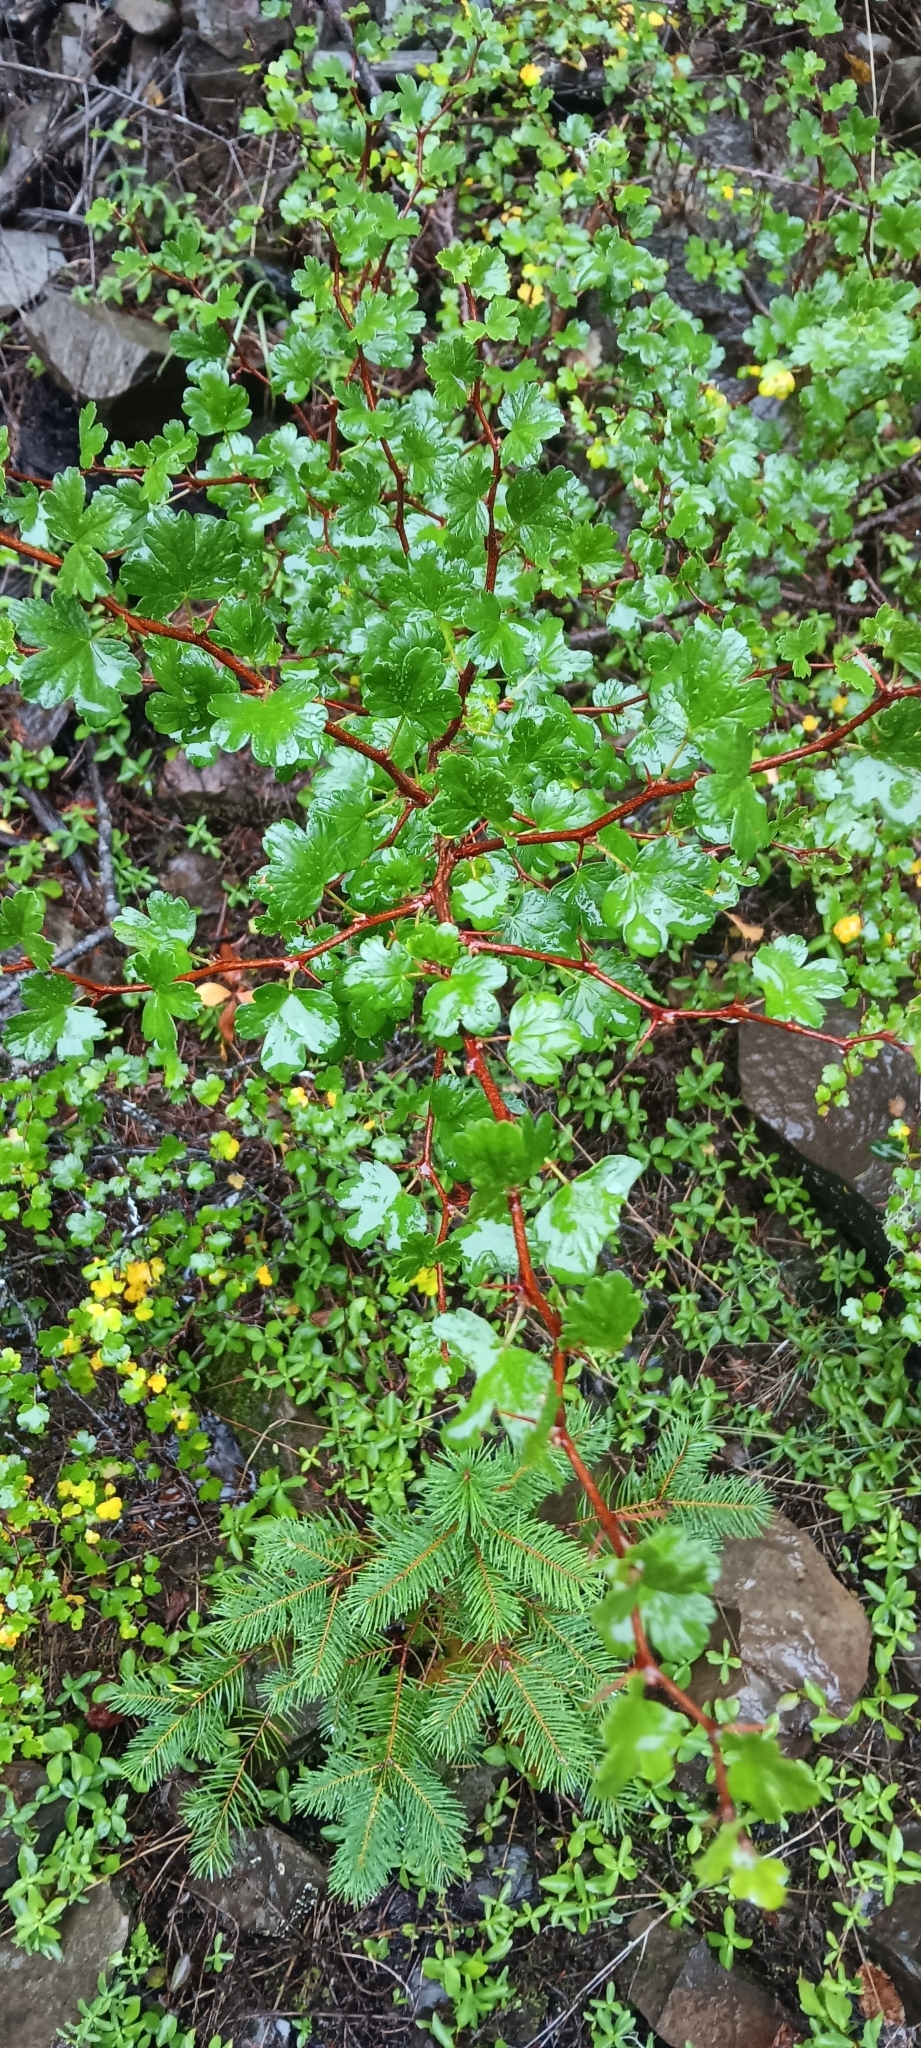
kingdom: Plantae
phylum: Tracheophyta
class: Magnoliopsida
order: Saxifragales
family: Grossulariaceae
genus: Ribes
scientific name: Ribes roezlii
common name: Sierra gooseberry
